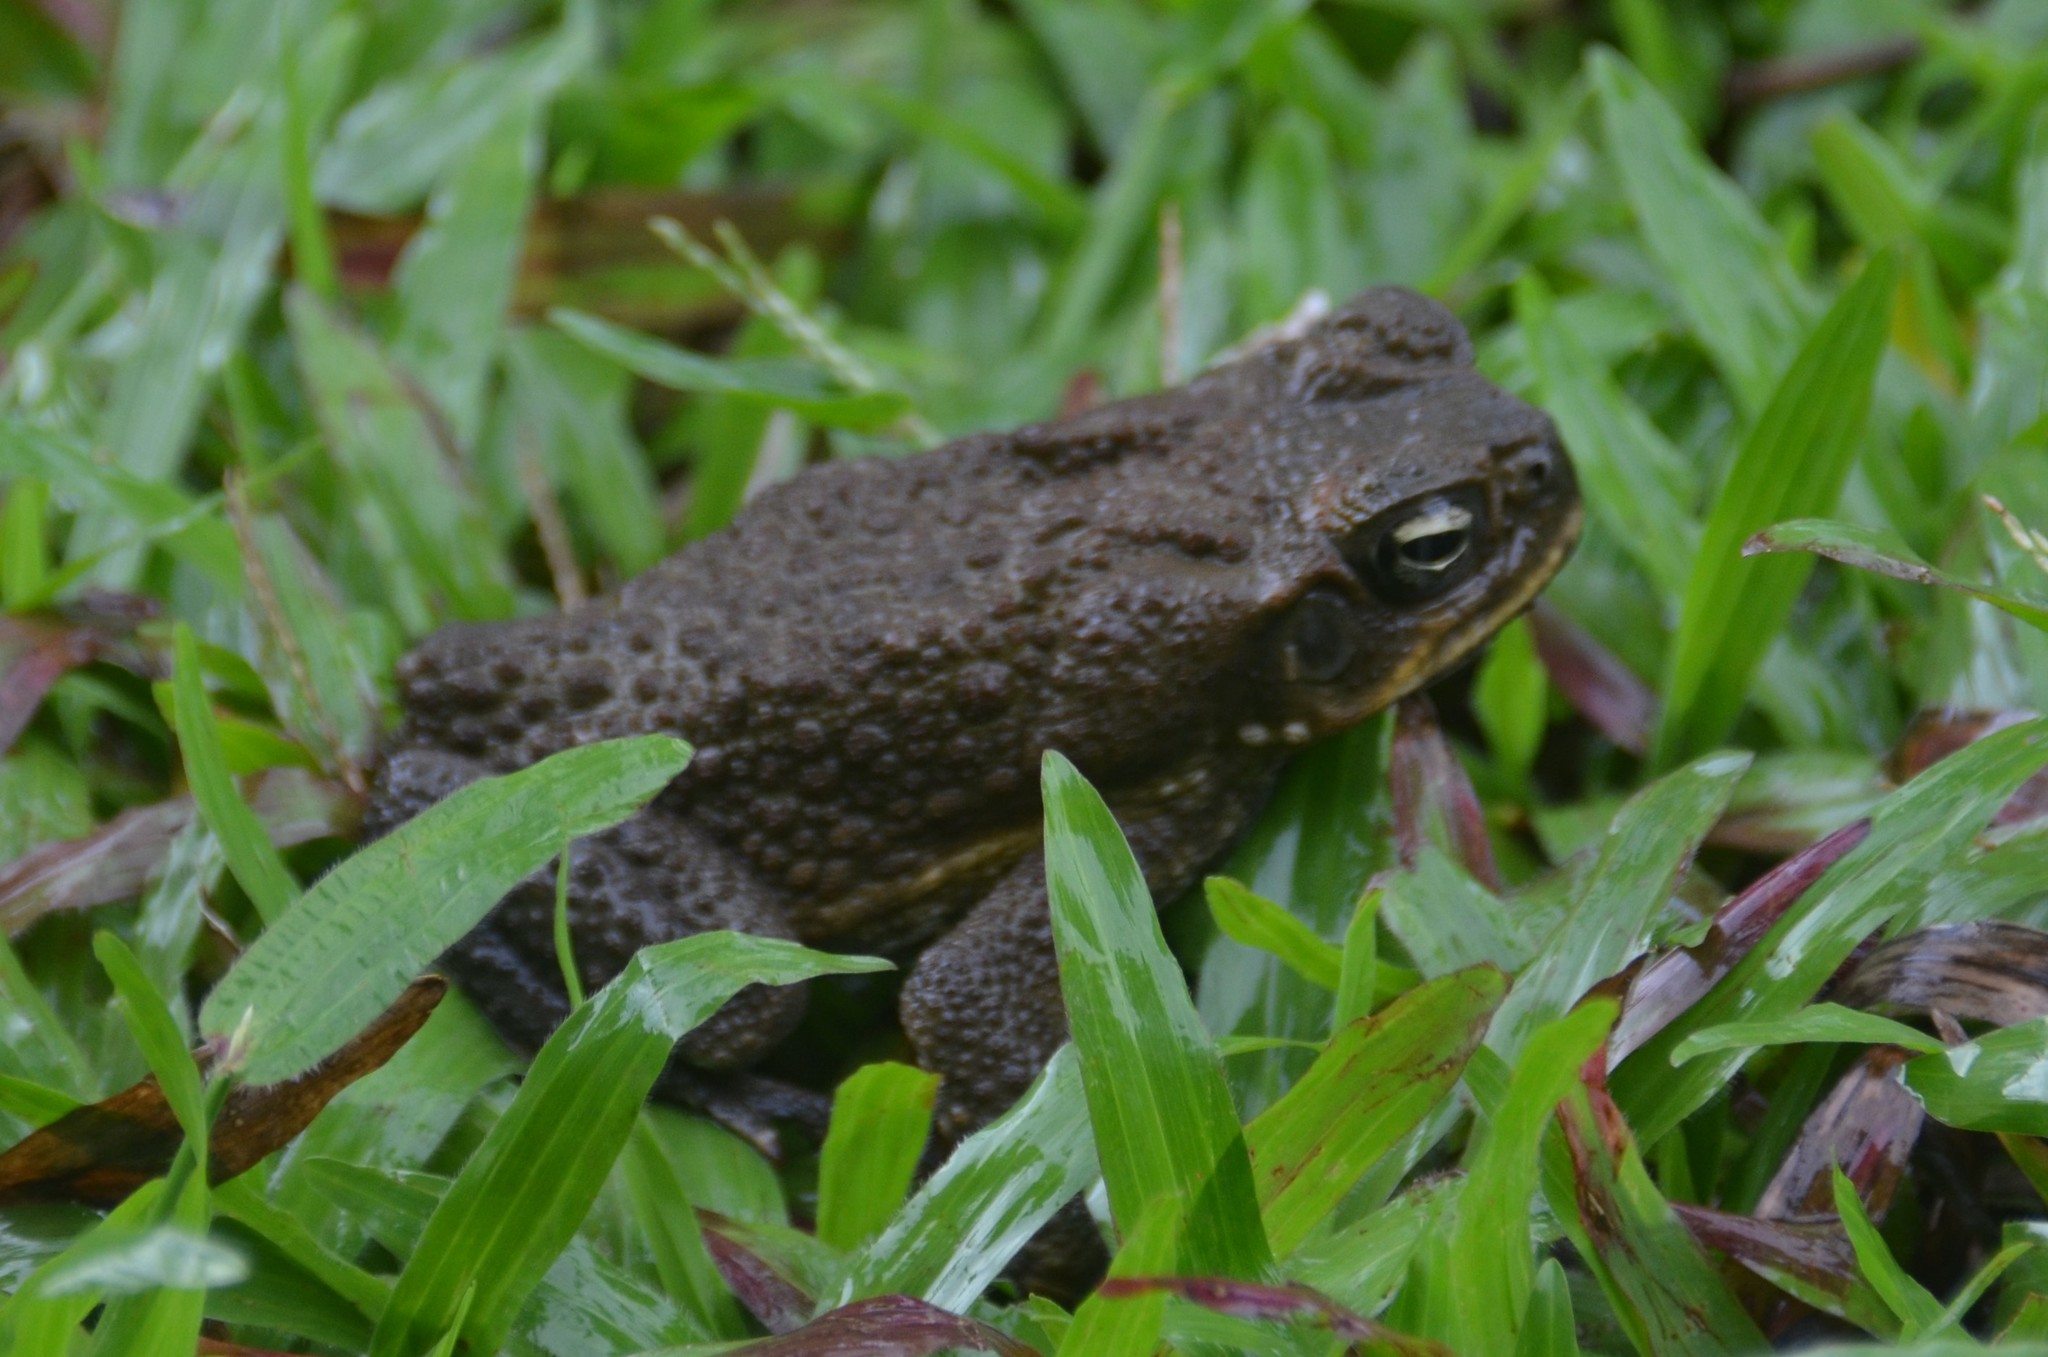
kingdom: Animalia
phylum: Chordata
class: Amphibia
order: Anura
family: Bufonidae
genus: Rhinella
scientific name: Rhinella marina
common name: Cane toad
